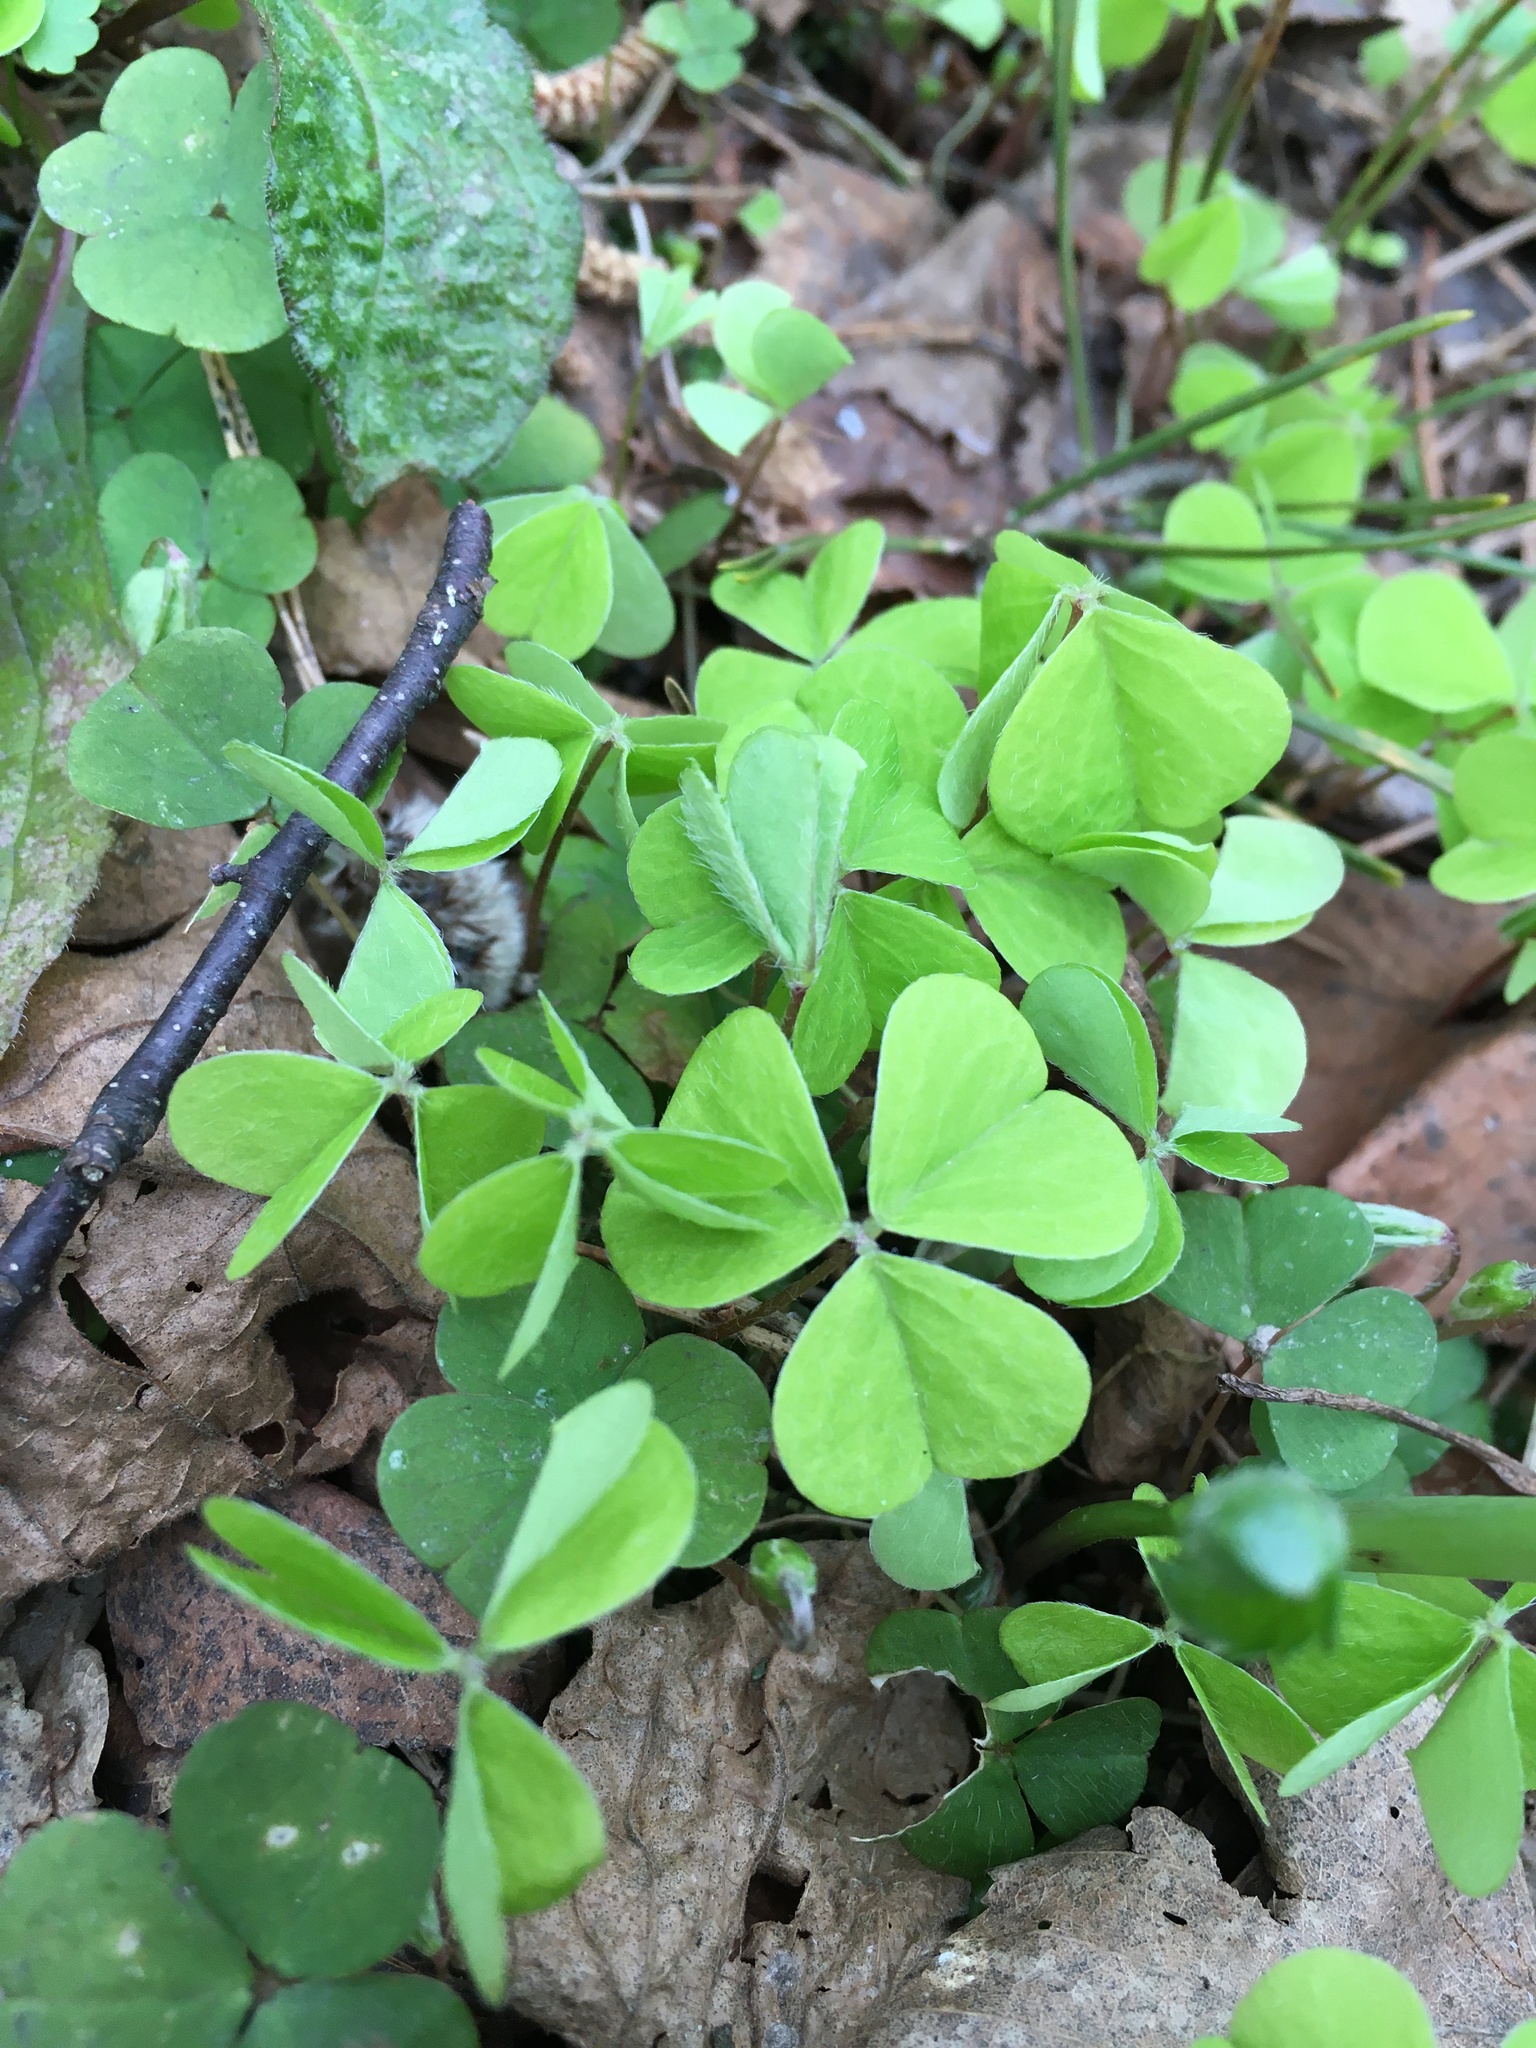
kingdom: Plantae
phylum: Tracheophyta
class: Magnoliopsida
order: Oxalidales
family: Oxalidaceae
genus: Oxalis
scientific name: Oxalis acetosella
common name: Wood-sorrel
